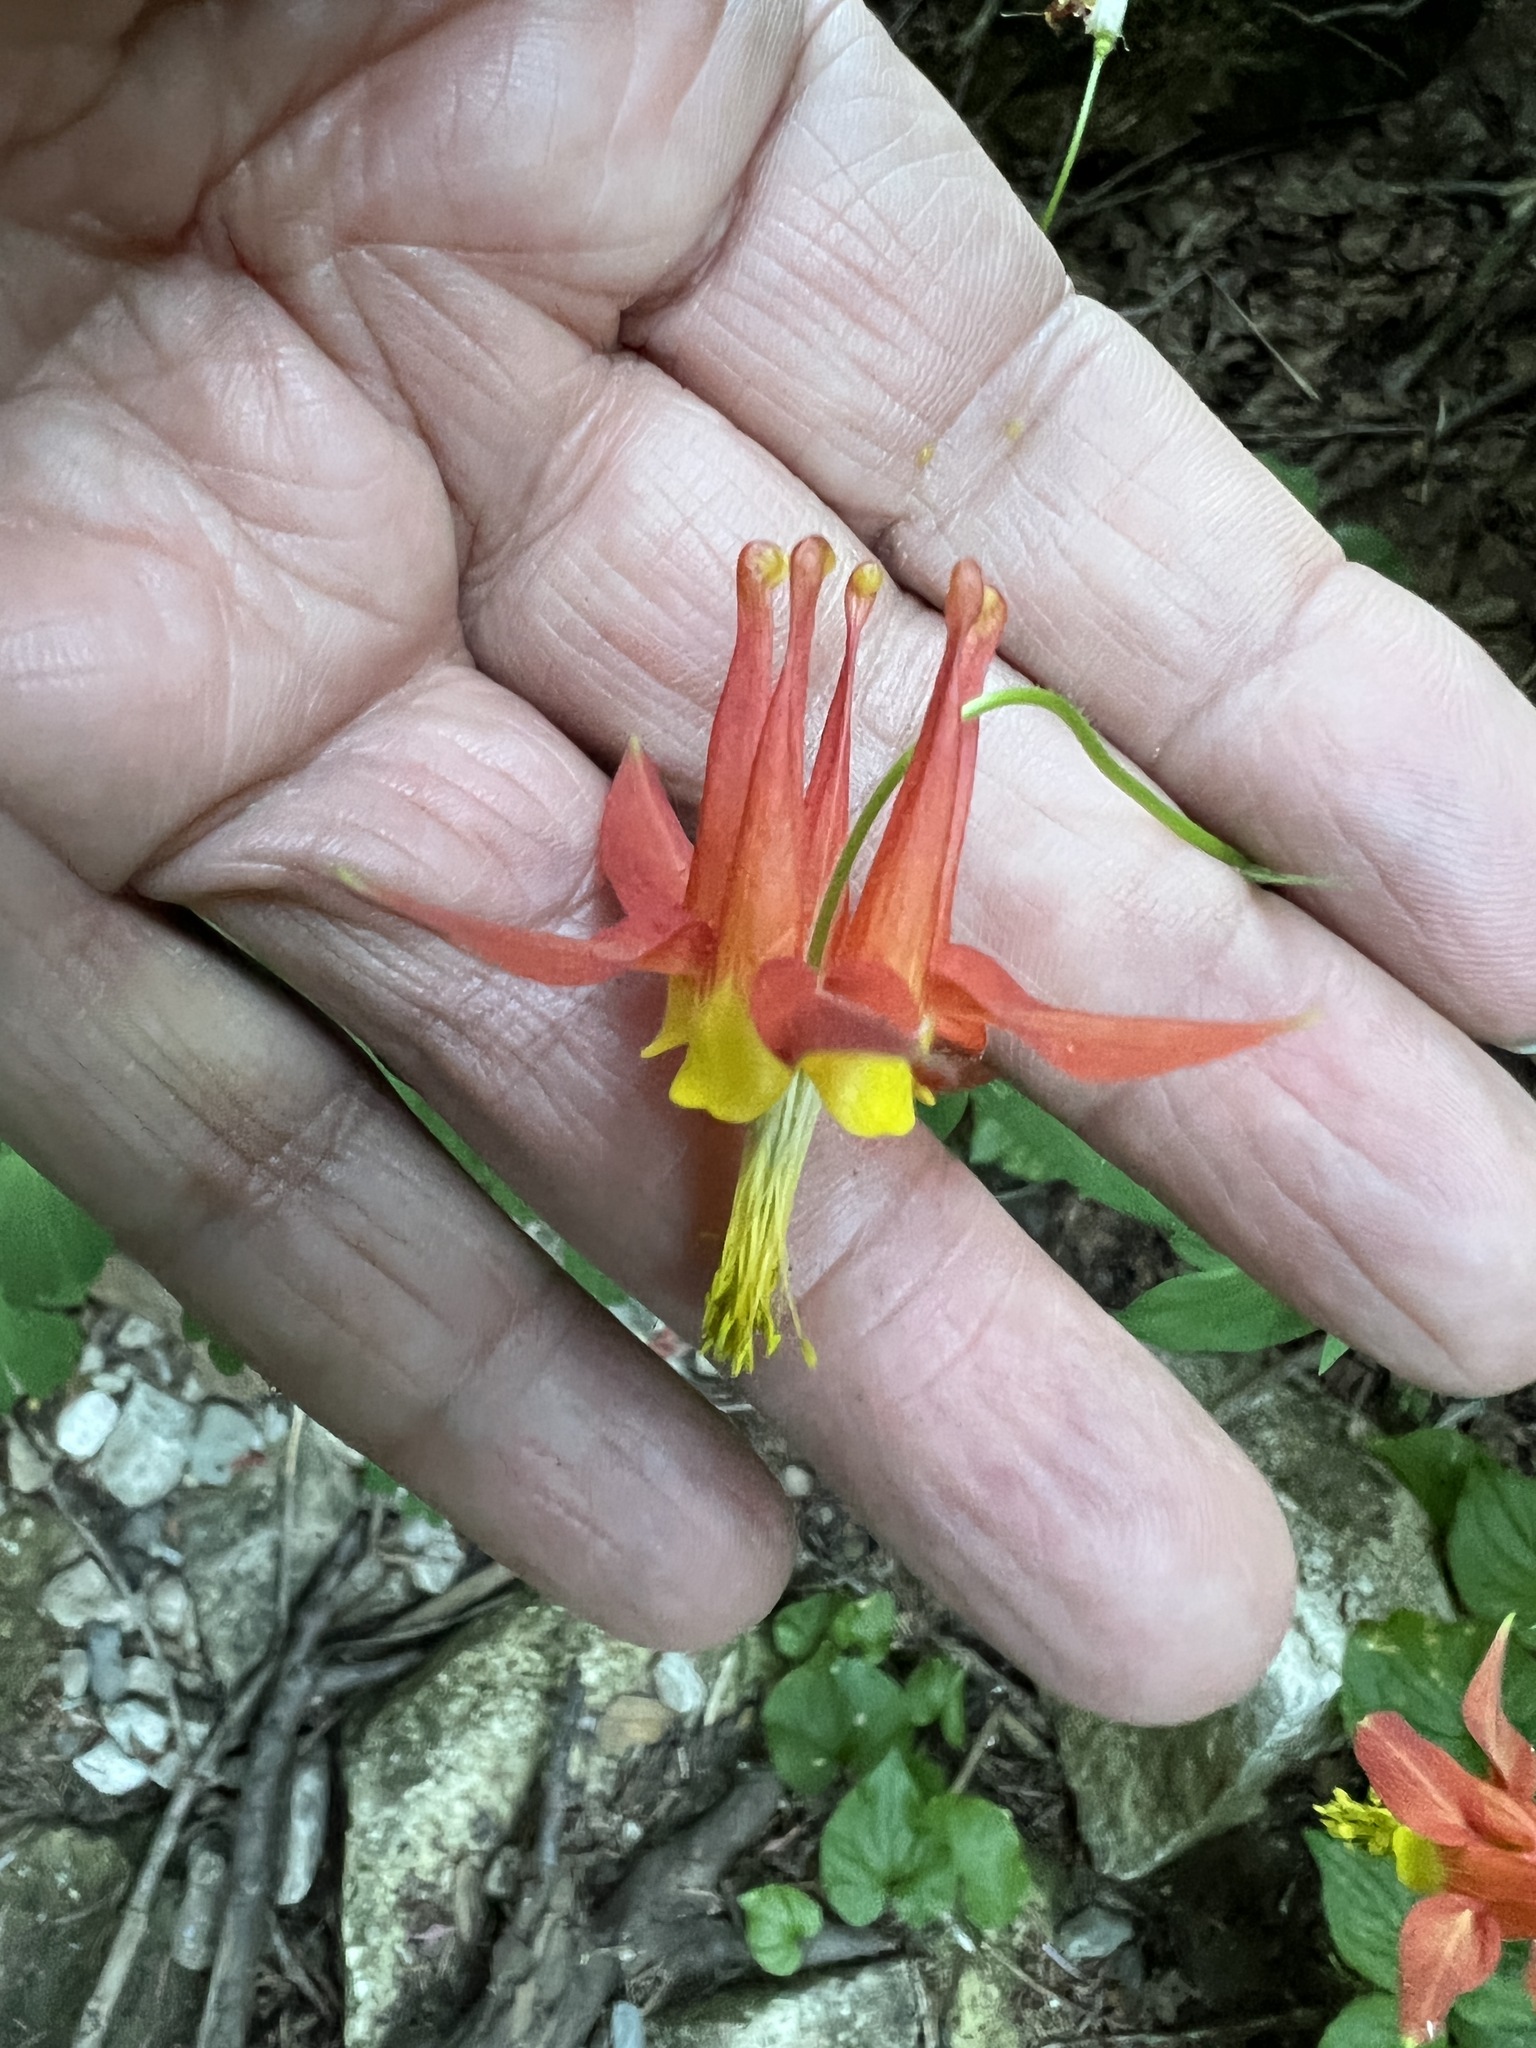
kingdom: Plantae
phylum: Tracheophyta
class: Magnoliopsida
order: Ranunculales
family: Ranunculaceae
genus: Aquilegia
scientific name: Aquilegia formosa
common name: Sitka columbine
